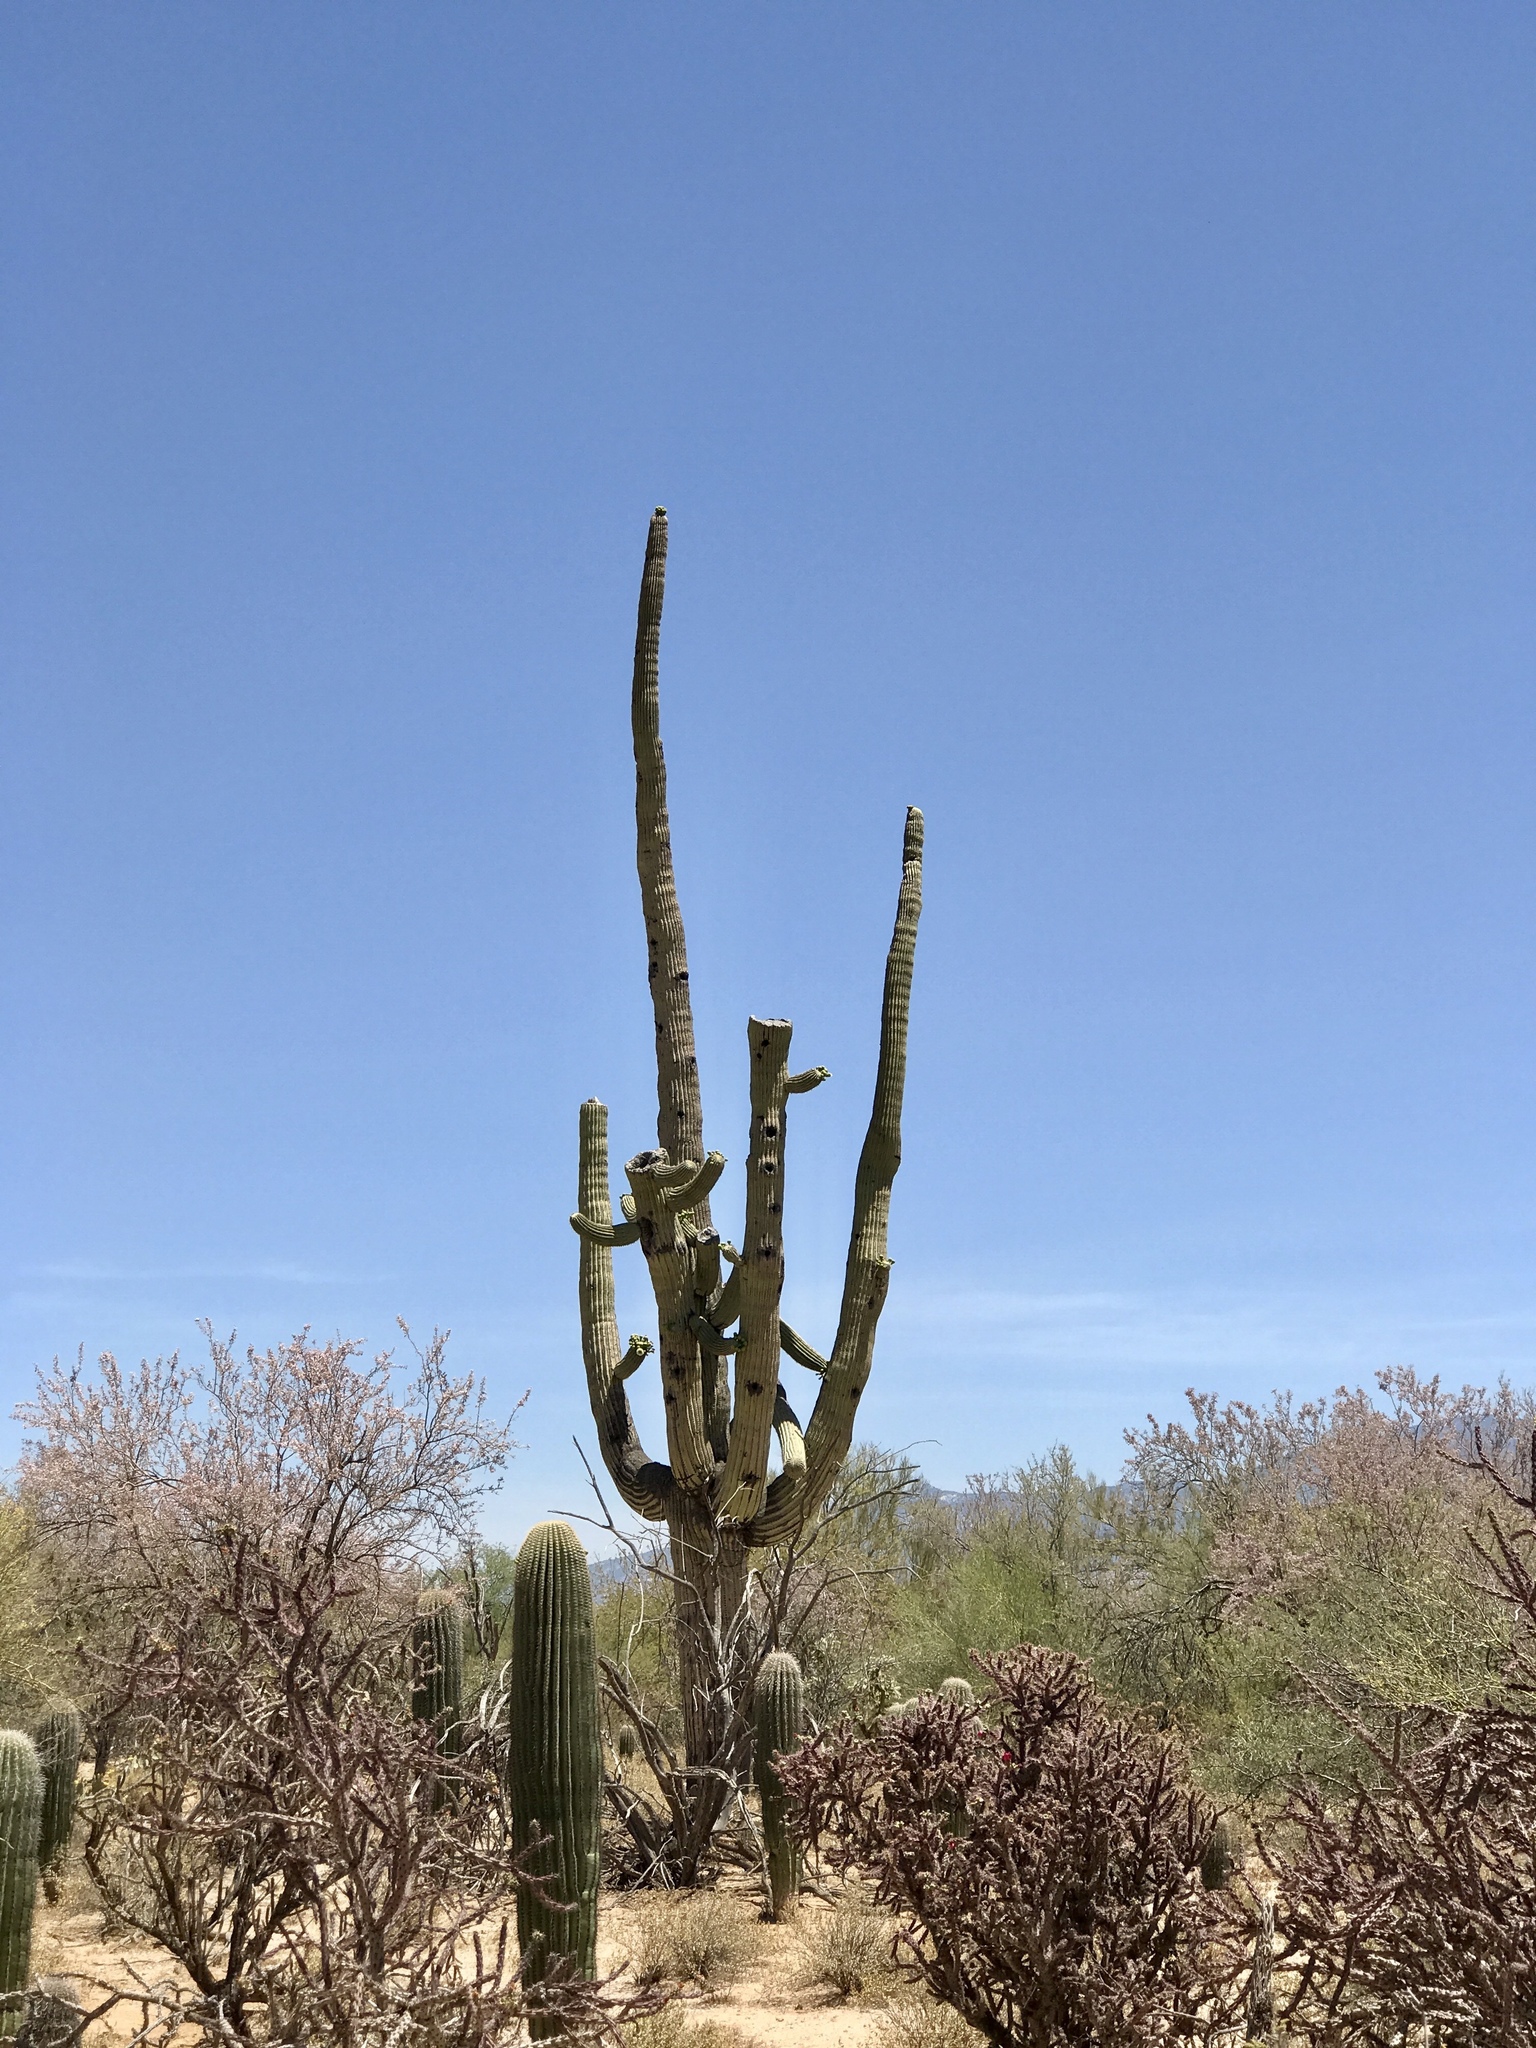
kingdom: Plantae
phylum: Tracheophyta
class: Magnoliopsida
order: Caryophyllales
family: Cactaceae
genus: Carnegiea
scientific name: Carnegiea gigantea
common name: Saguaro
